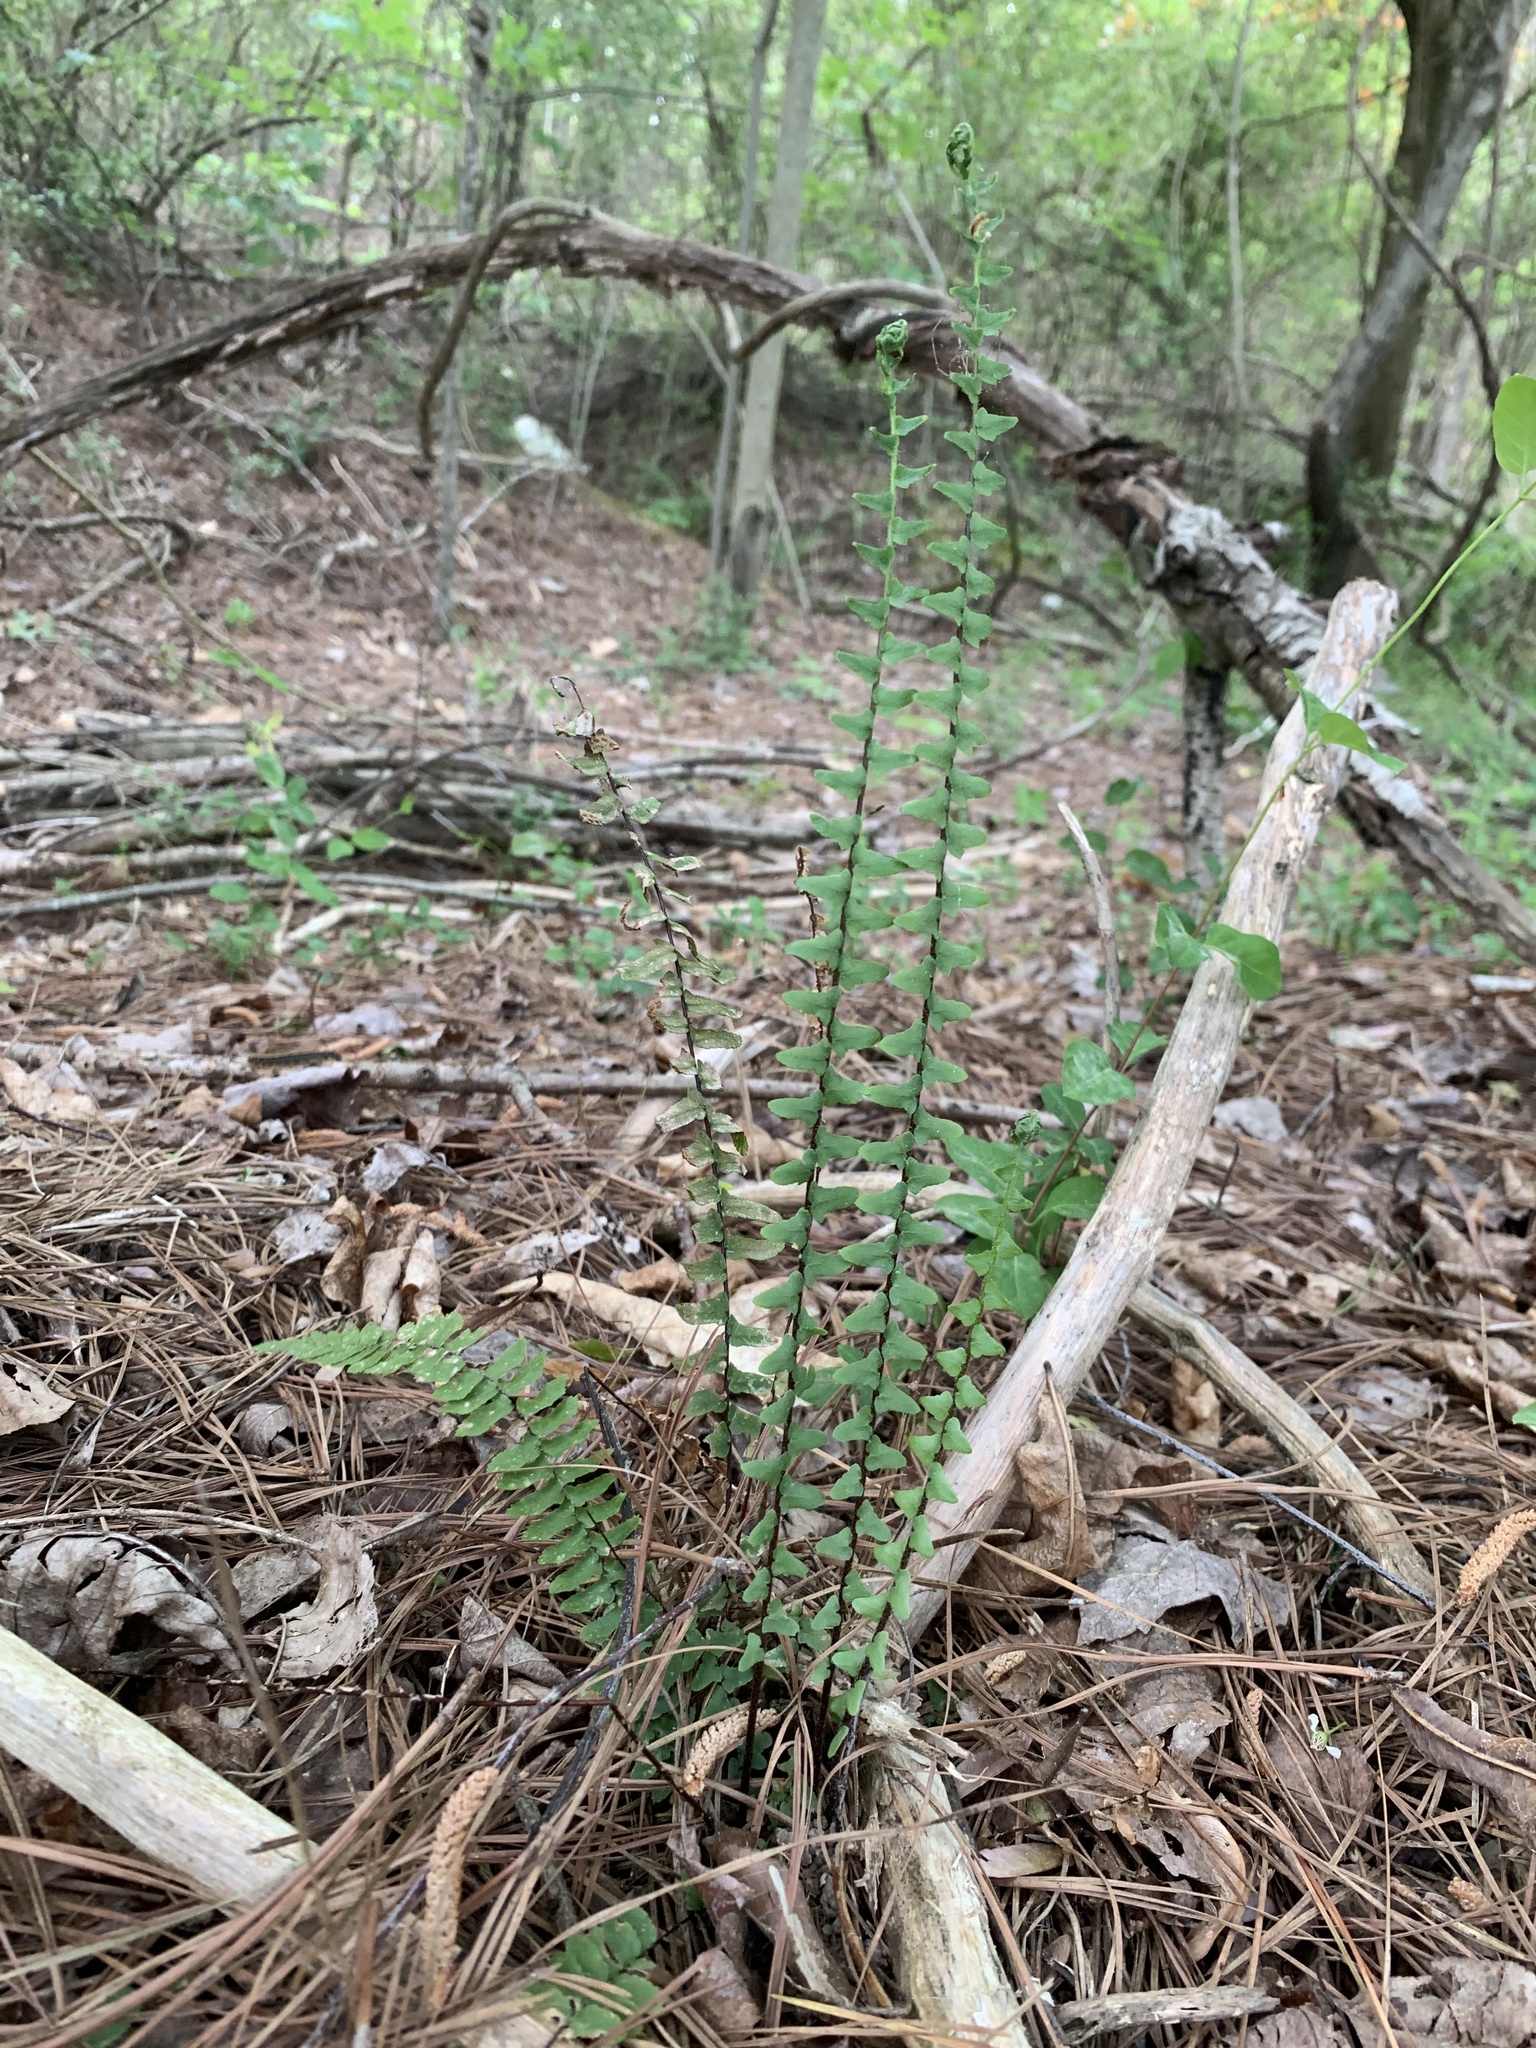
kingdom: Plantae
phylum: Tracheophyta
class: Polypodiopsida
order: Polypodiales
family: Aspleniaceae
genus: Asplenium
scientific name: Asplenium platyneuron
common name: Ebony spleenwort
